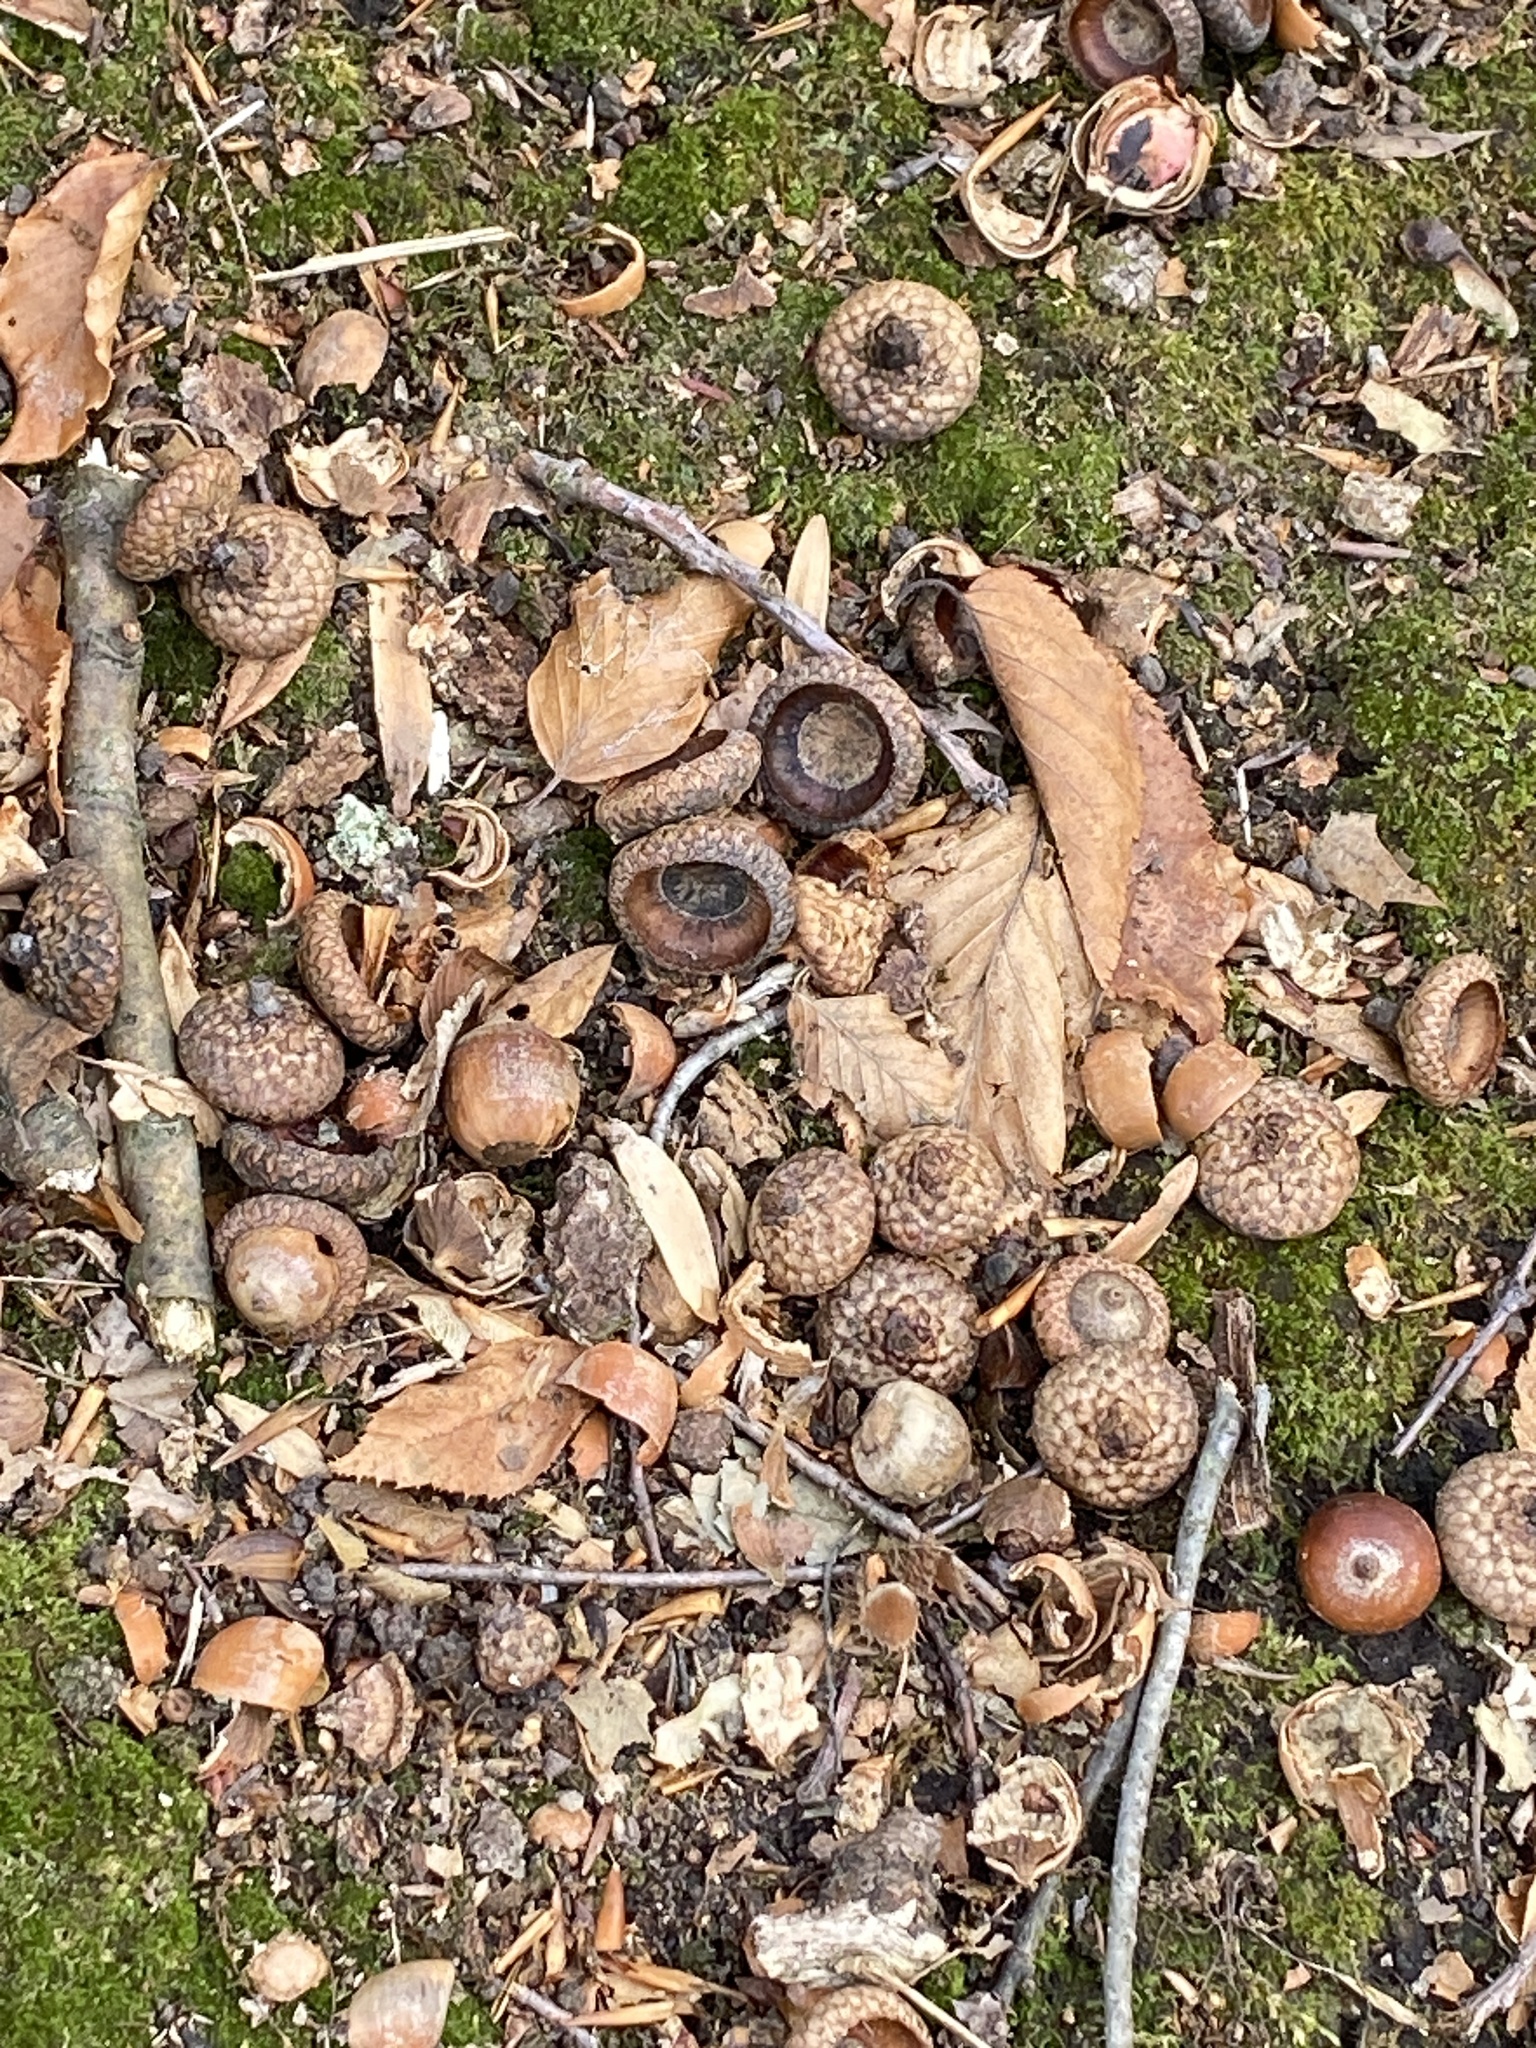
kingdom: Plantae
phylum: Tracheophyta
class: Magnoliopsida
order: Fagales
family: Fagaceae
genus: Quercus
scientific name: Quercus rubra
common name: Red oak
